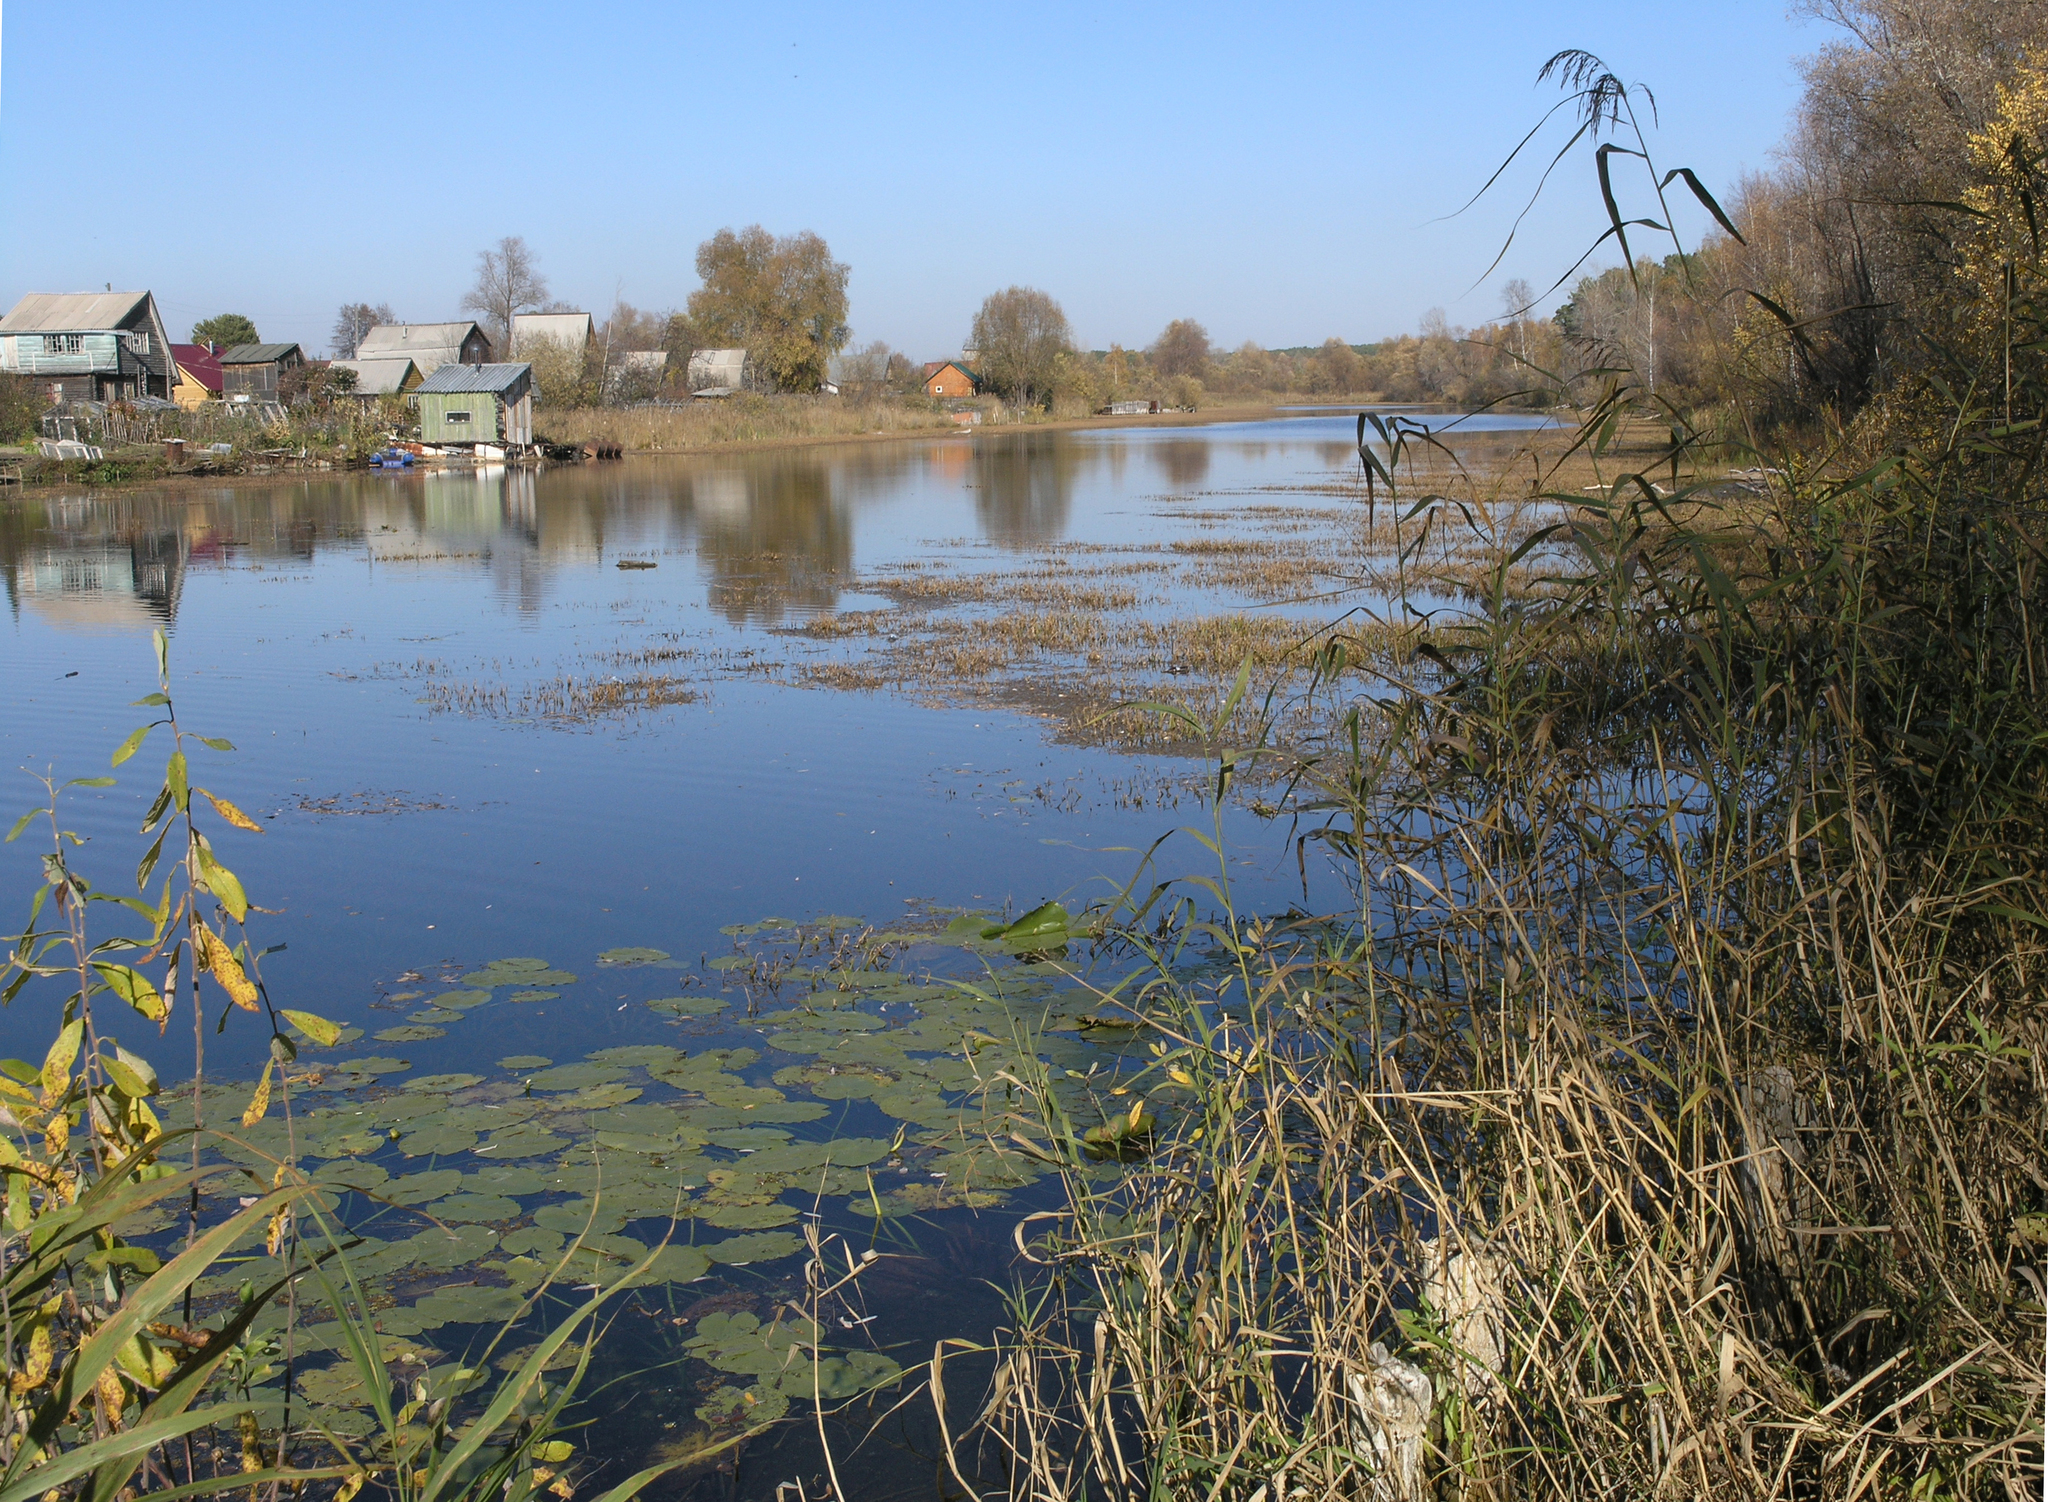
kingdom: Plantae
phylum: Tracheophyta
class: Magnoliopsida
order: Nymphaeales
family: Nymphaeaceae
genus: Nuphar
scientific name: Nuphar lutea
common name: Yellow water-lily
